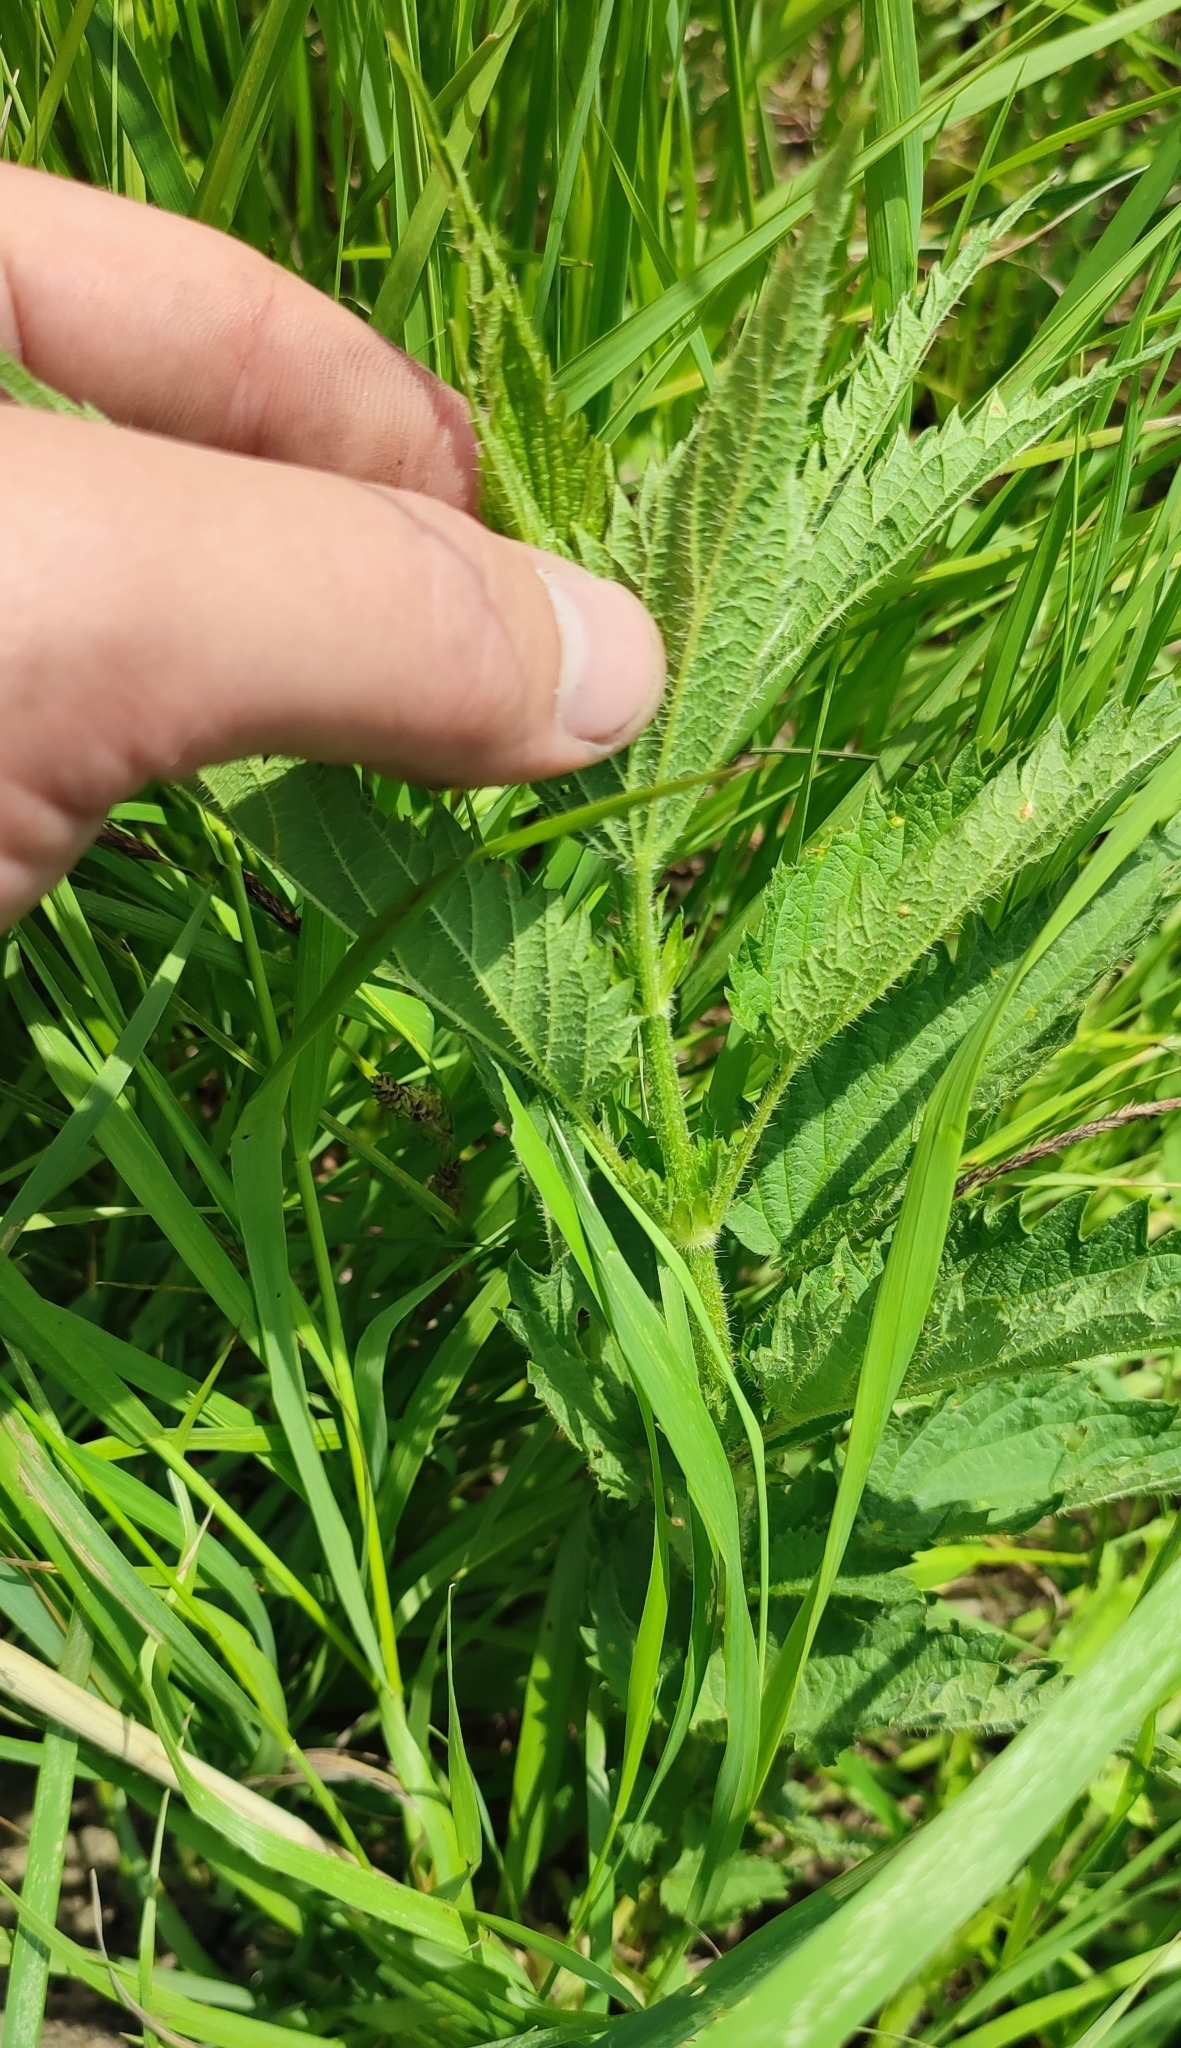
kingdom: Plantae
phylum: Tracheophyta
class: Magnoliopsida
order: Rosales
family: Urticaceae
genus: Urtica
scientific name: Urtica dioica
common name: Common nettle
